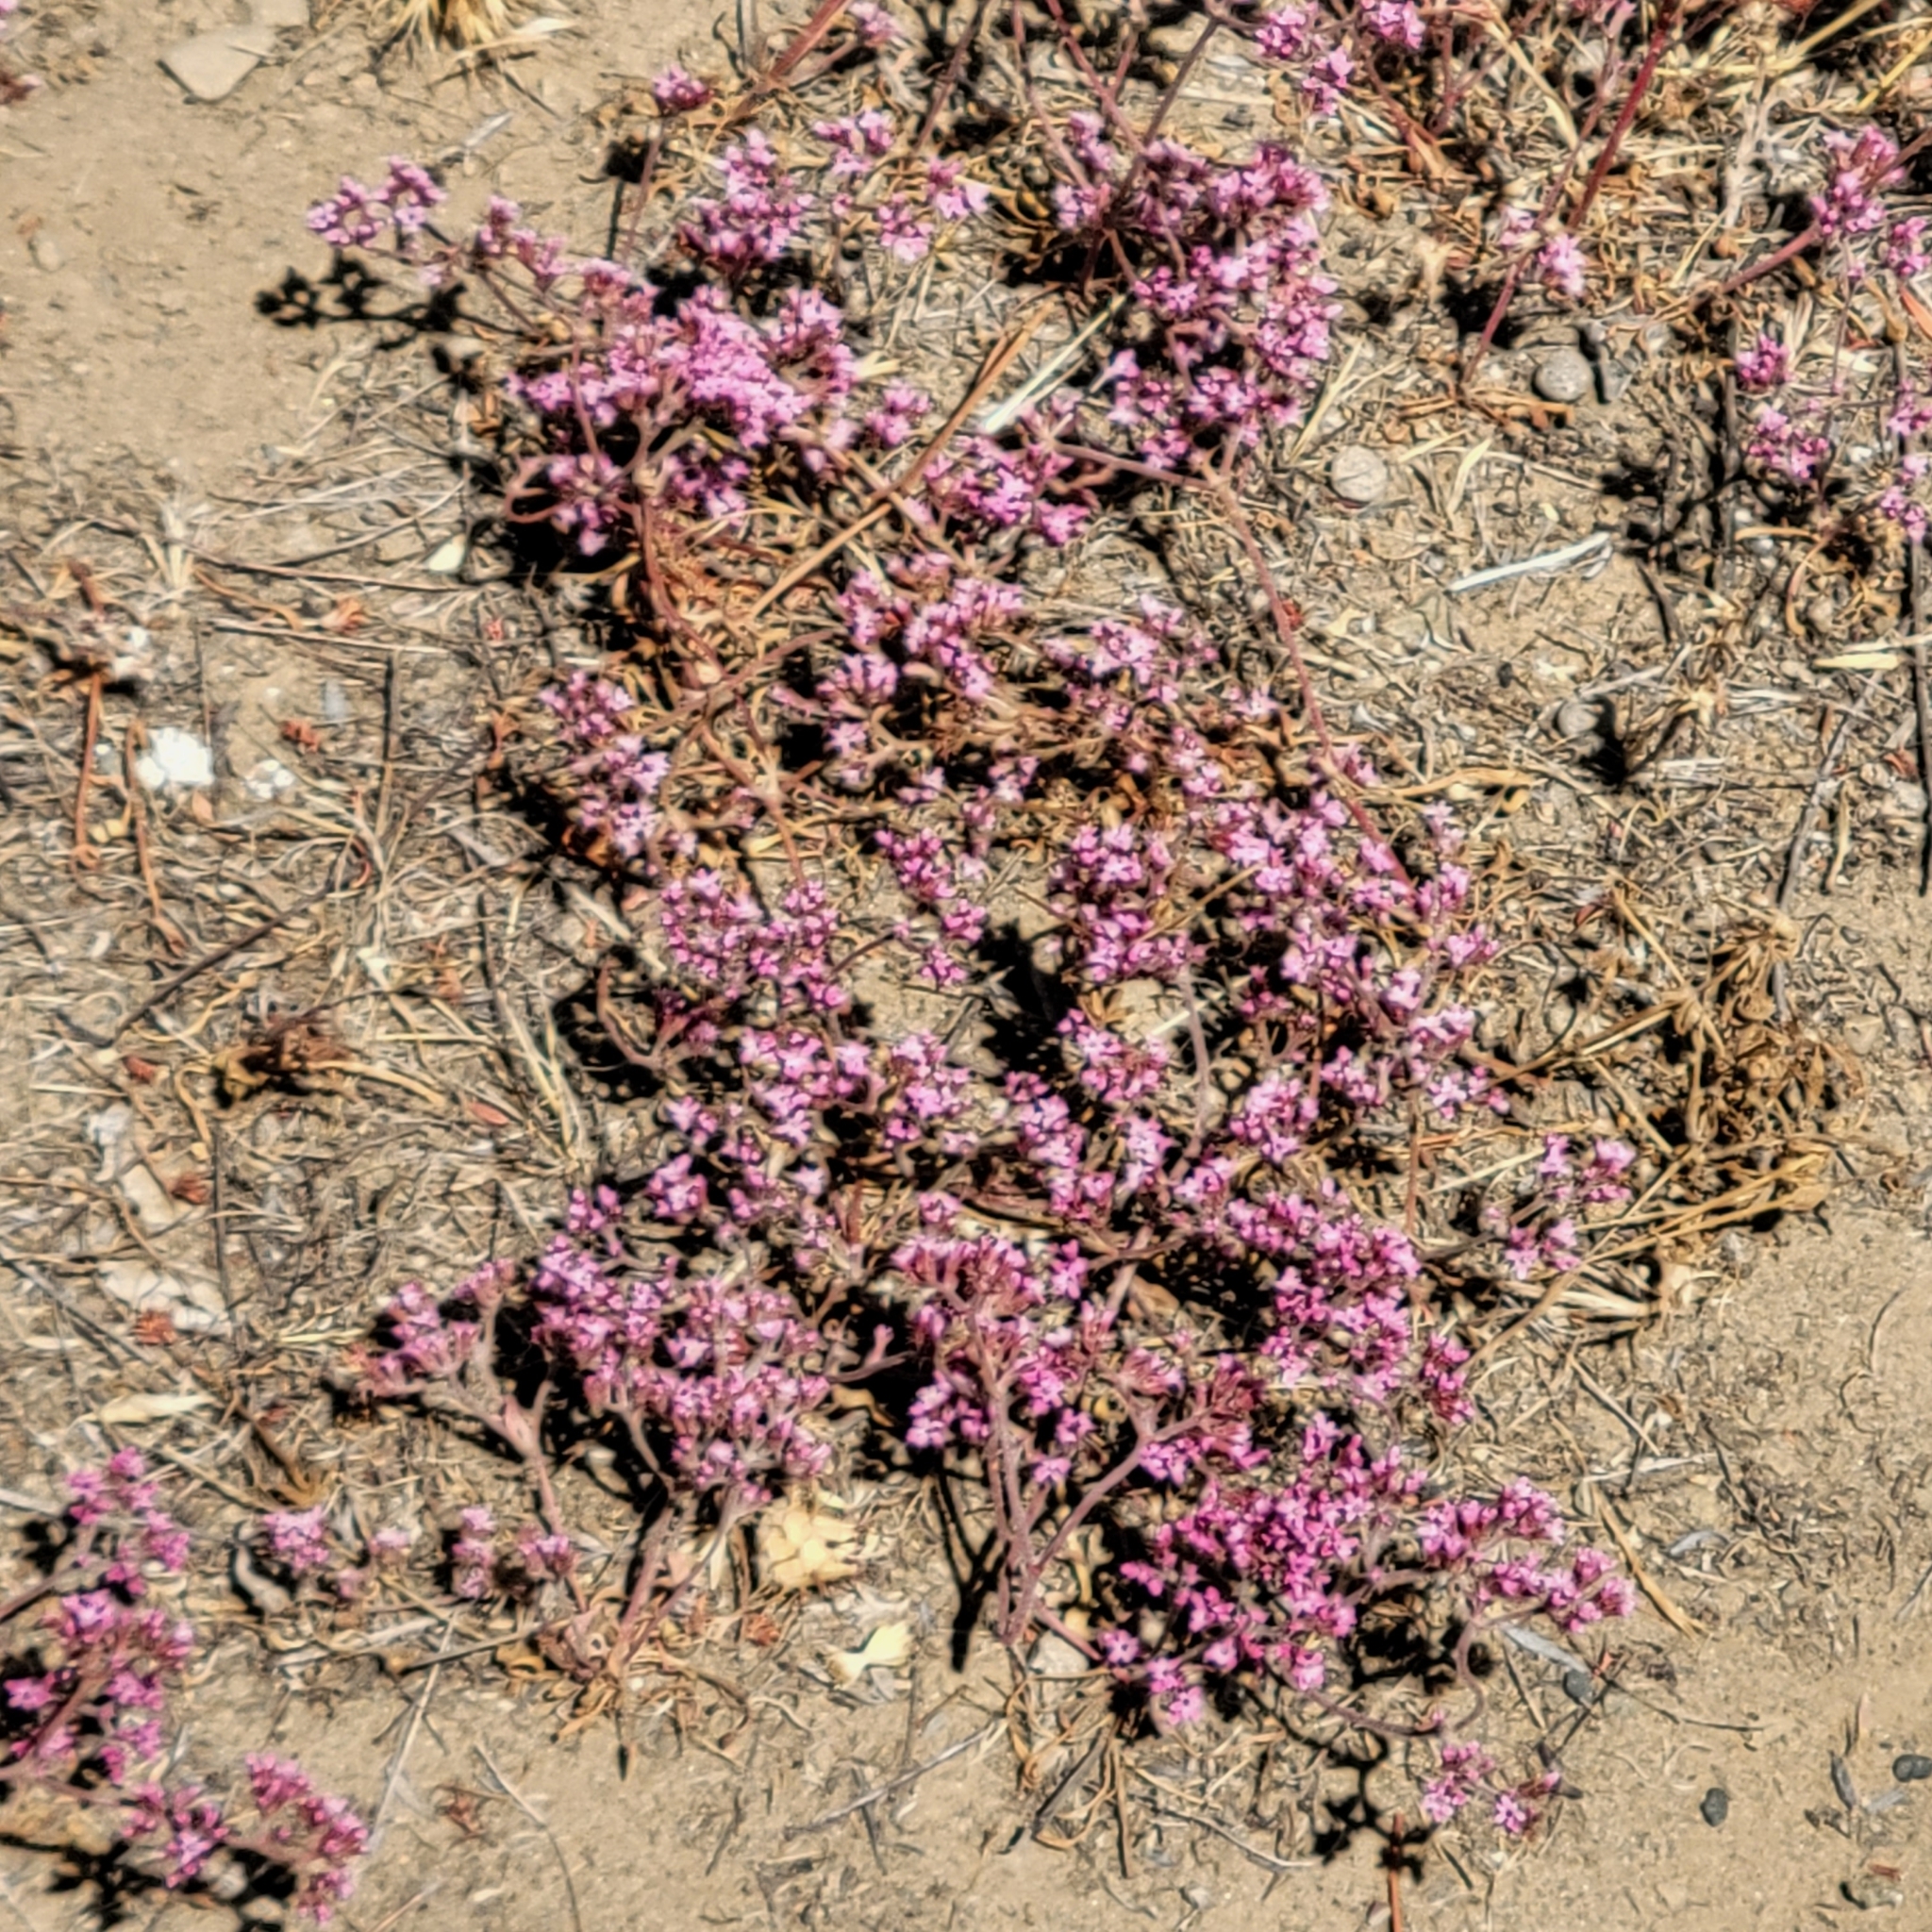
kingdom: Plantae
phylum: Tracheophyta
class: Magnoliopsida
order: Caryophyllales
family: Polygonaceae
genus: Chorizanthe
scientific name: Chorizanthe staticoides
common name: Turkish rugging
